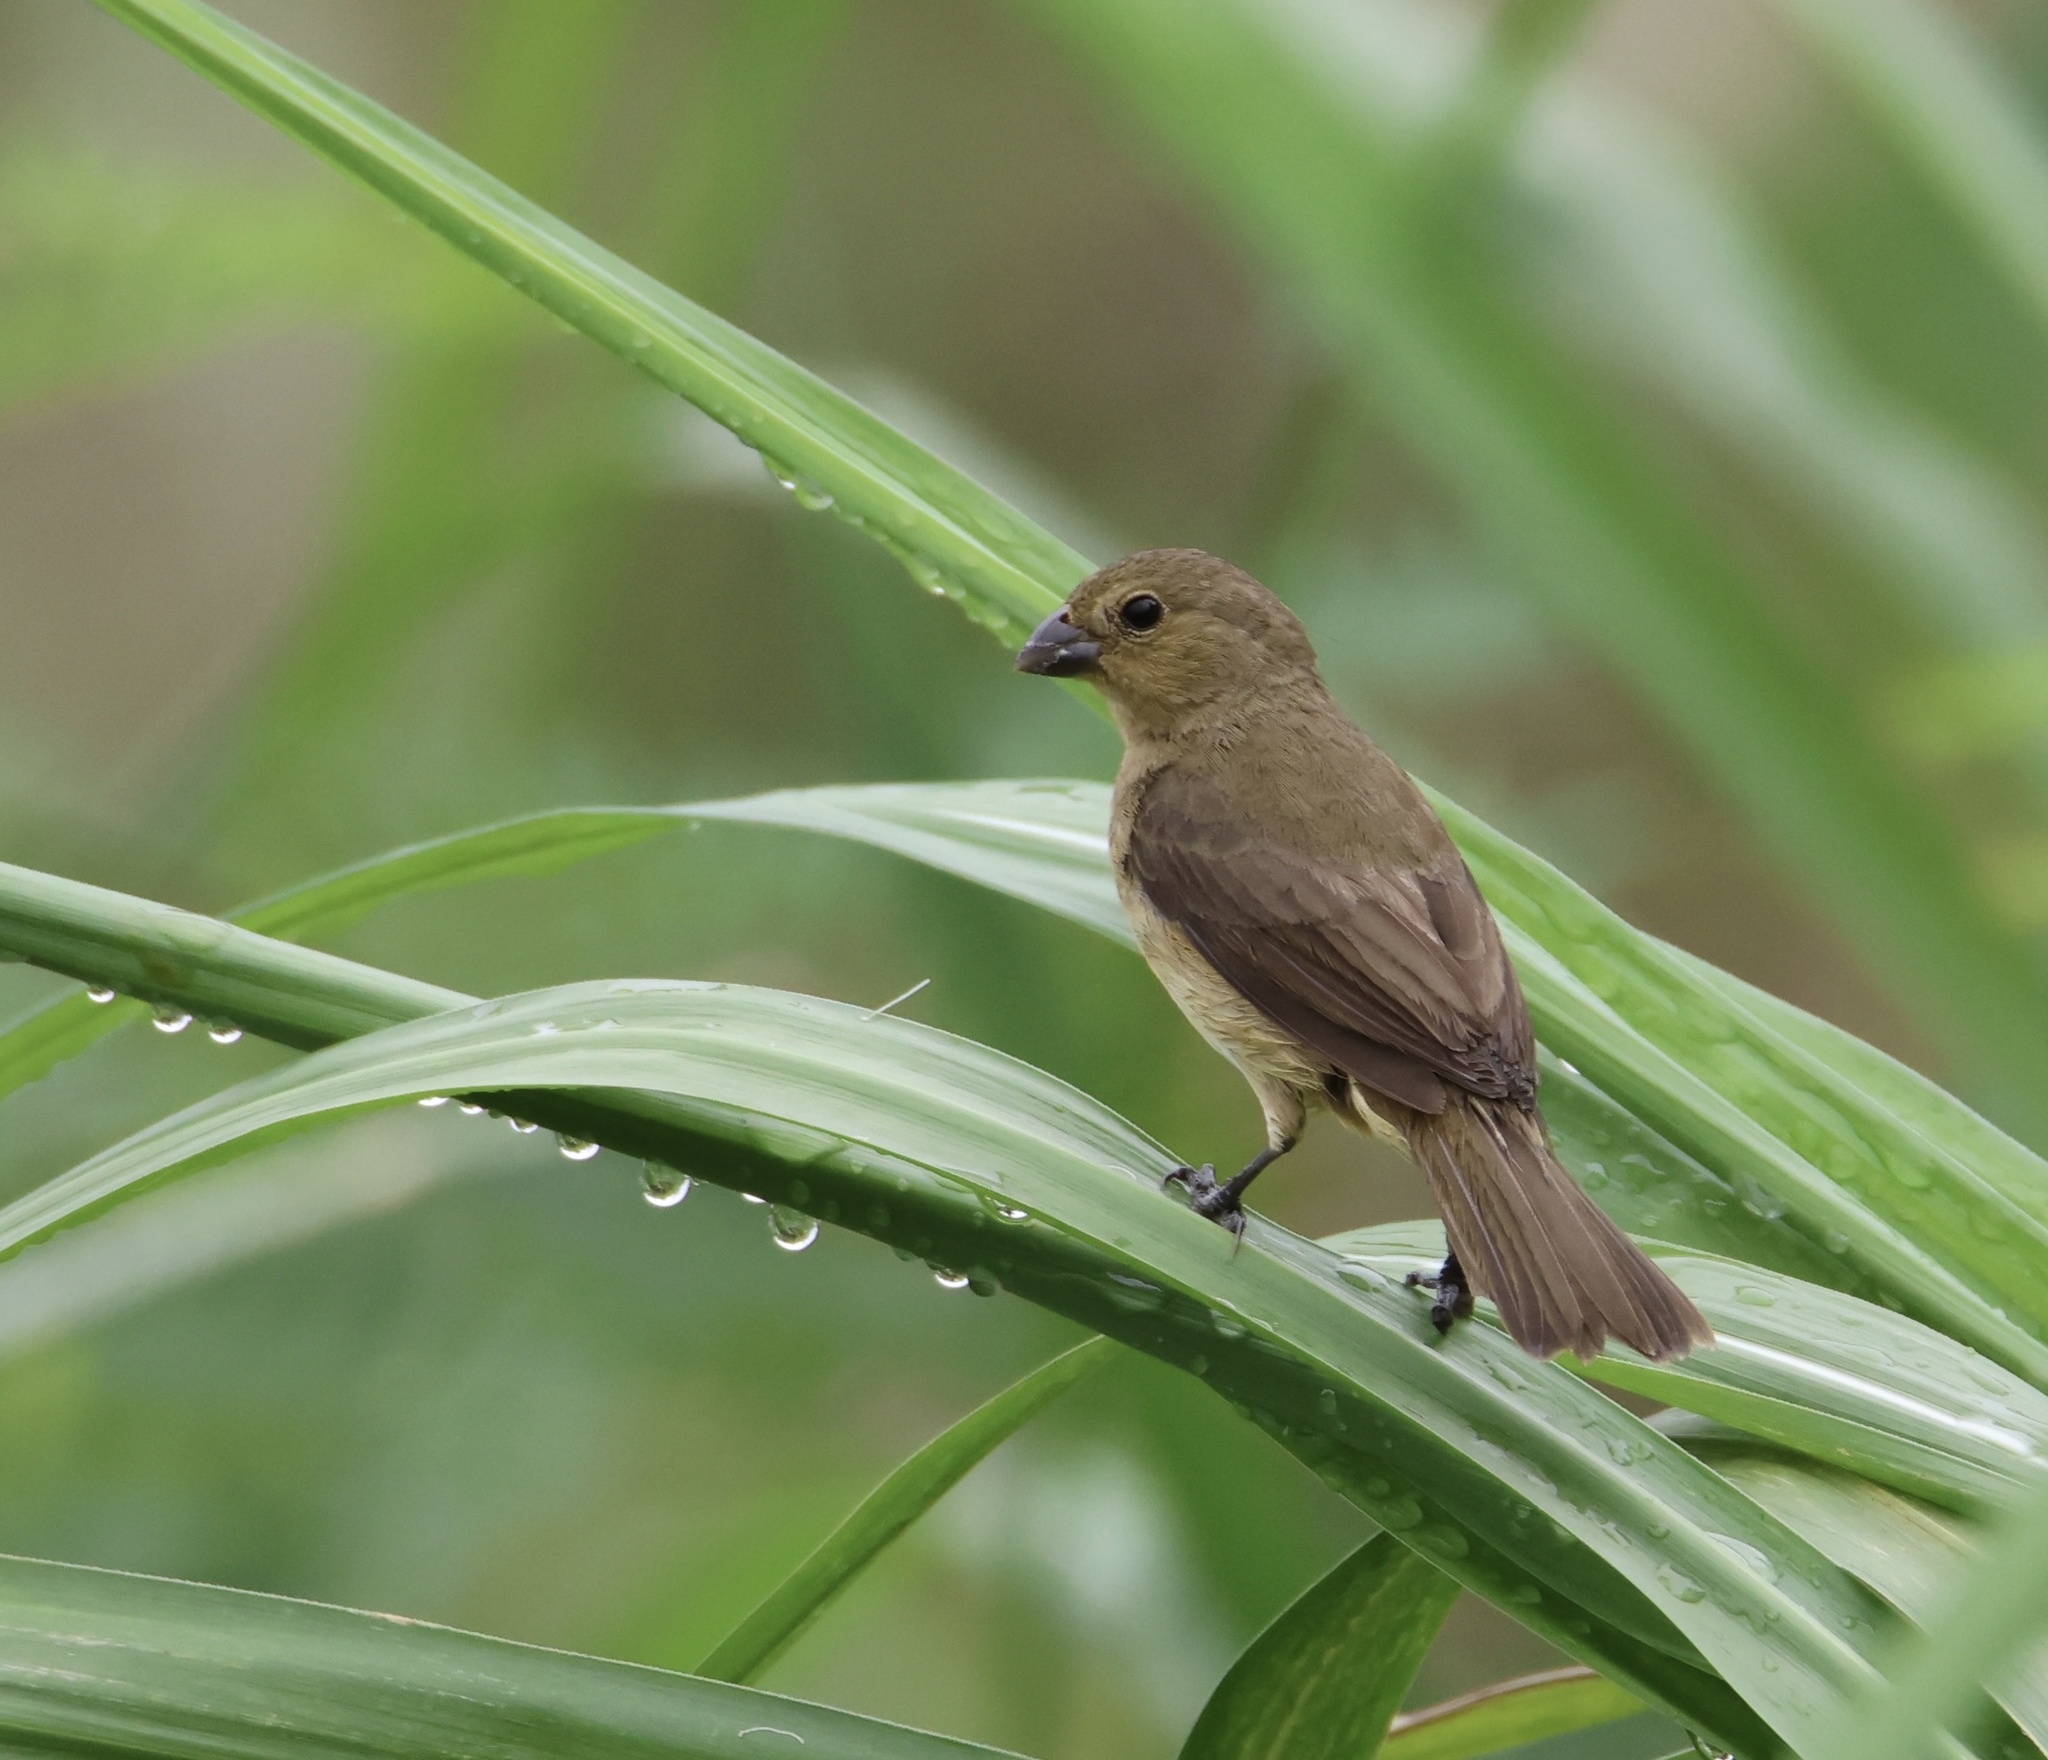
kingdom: Animalia
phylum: Chordata
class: Aves
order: Passeriformes
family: Thraupidae
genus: Sporophila
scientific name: Sporophila nigricollis
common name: Yellow-bellied seedeater
